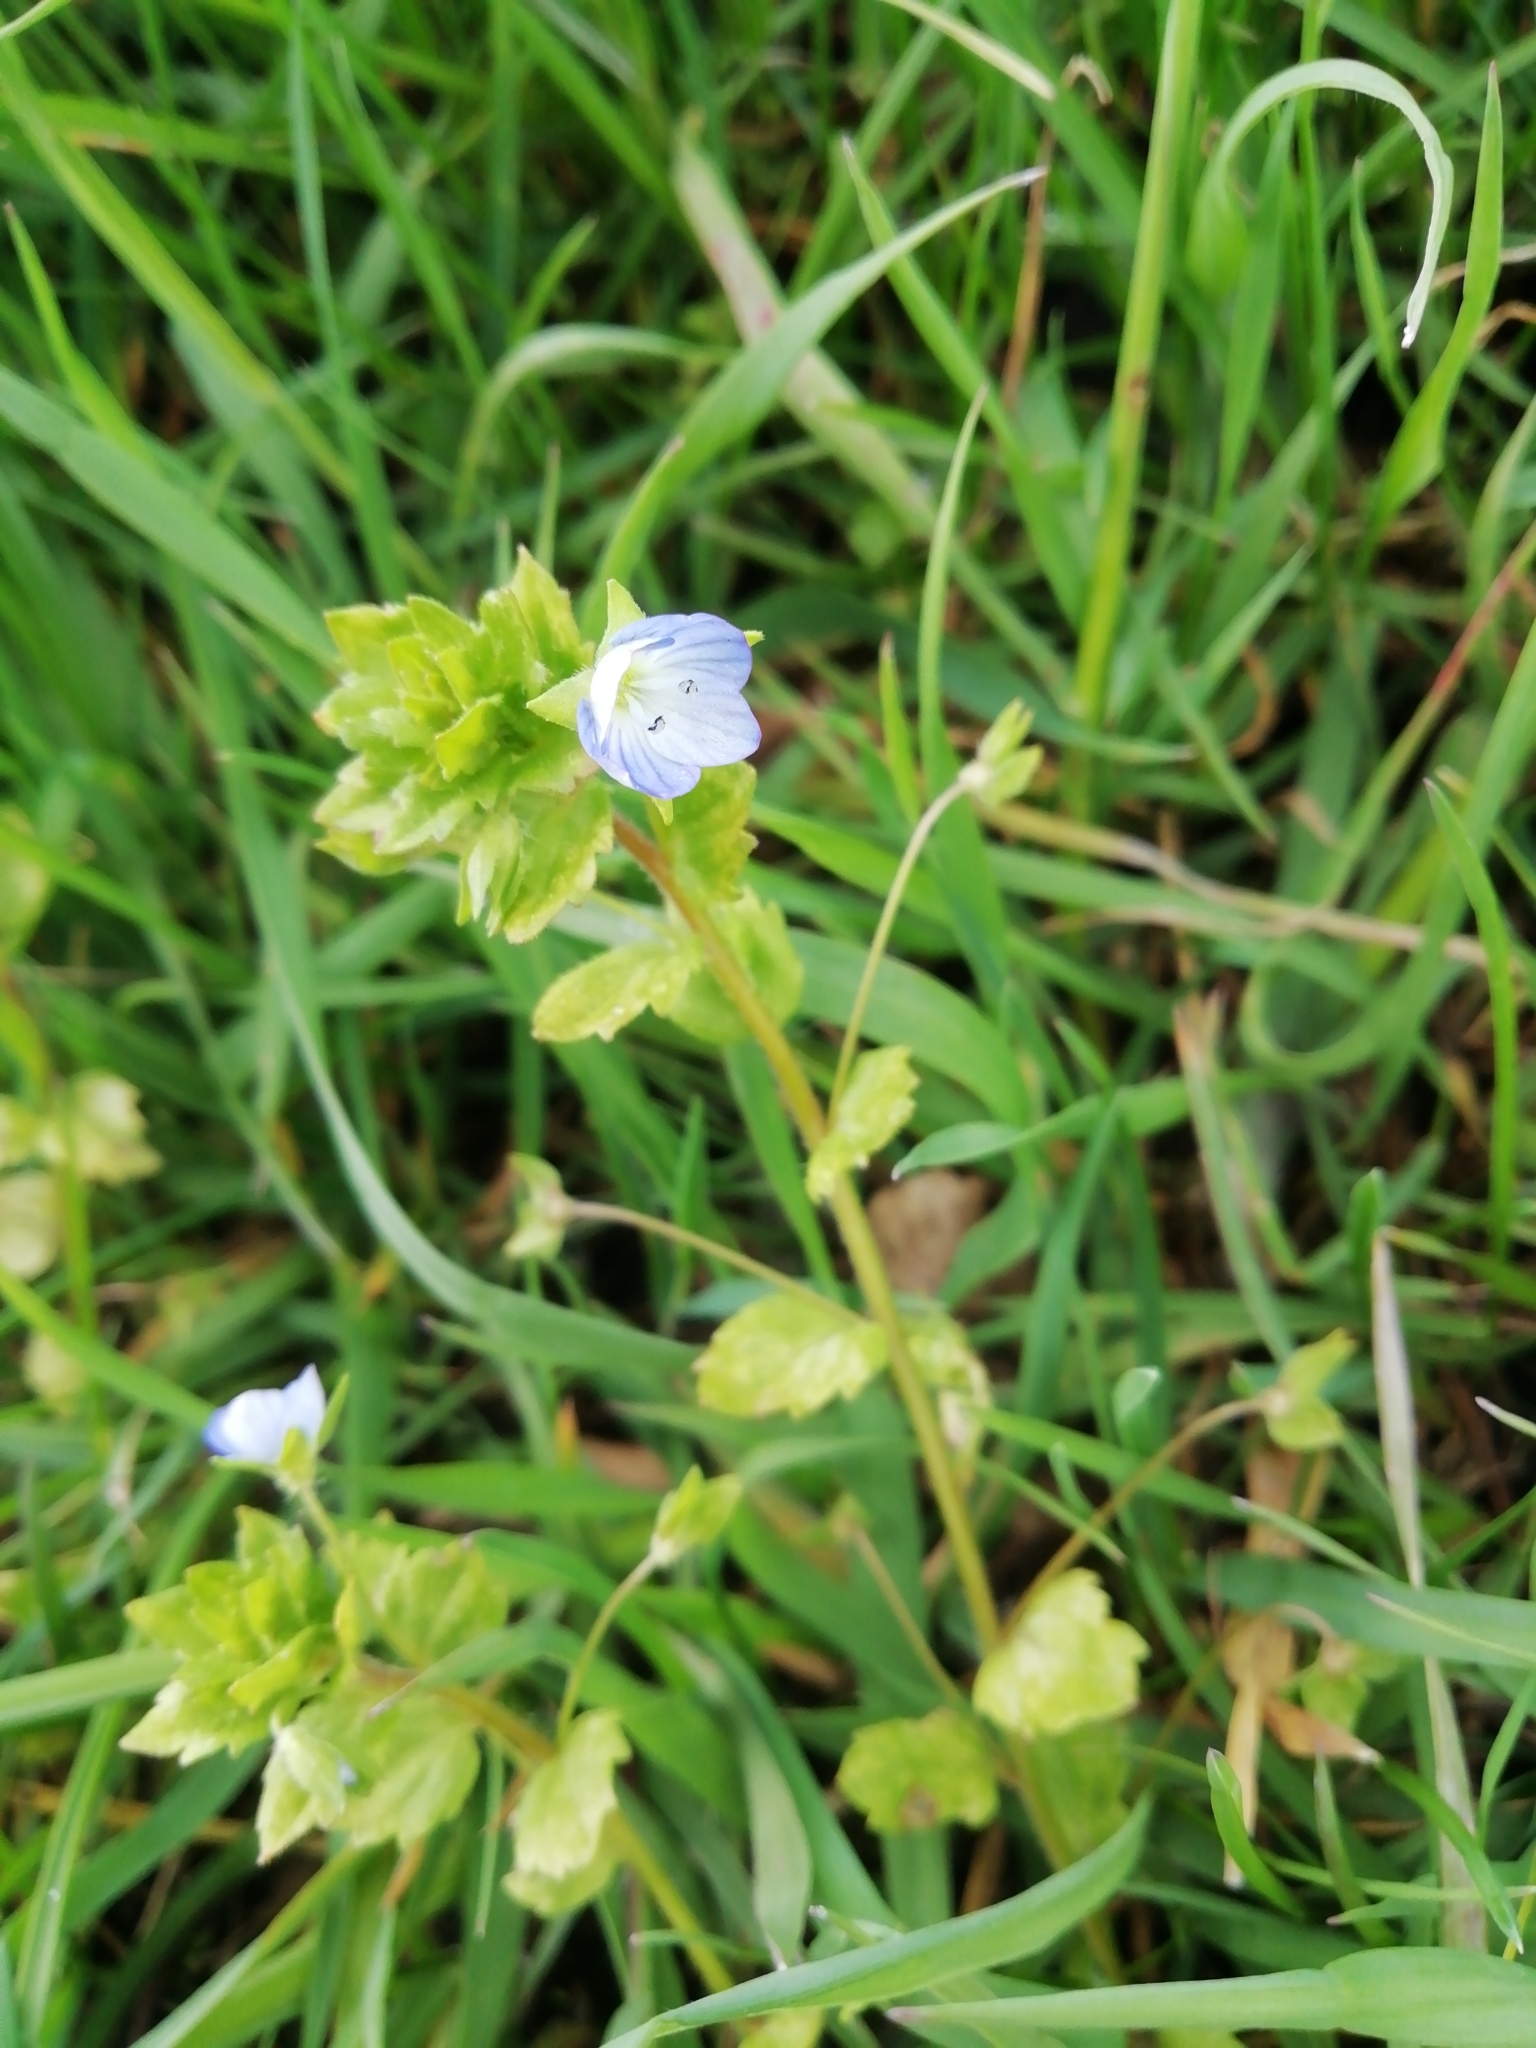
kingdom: Plantae
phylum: Tracheophyta
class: Magnoliopsida
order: Lamiales
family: Plantaginaceae
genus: Veronica
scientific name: Veronica persica
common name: Common field-speedwell
